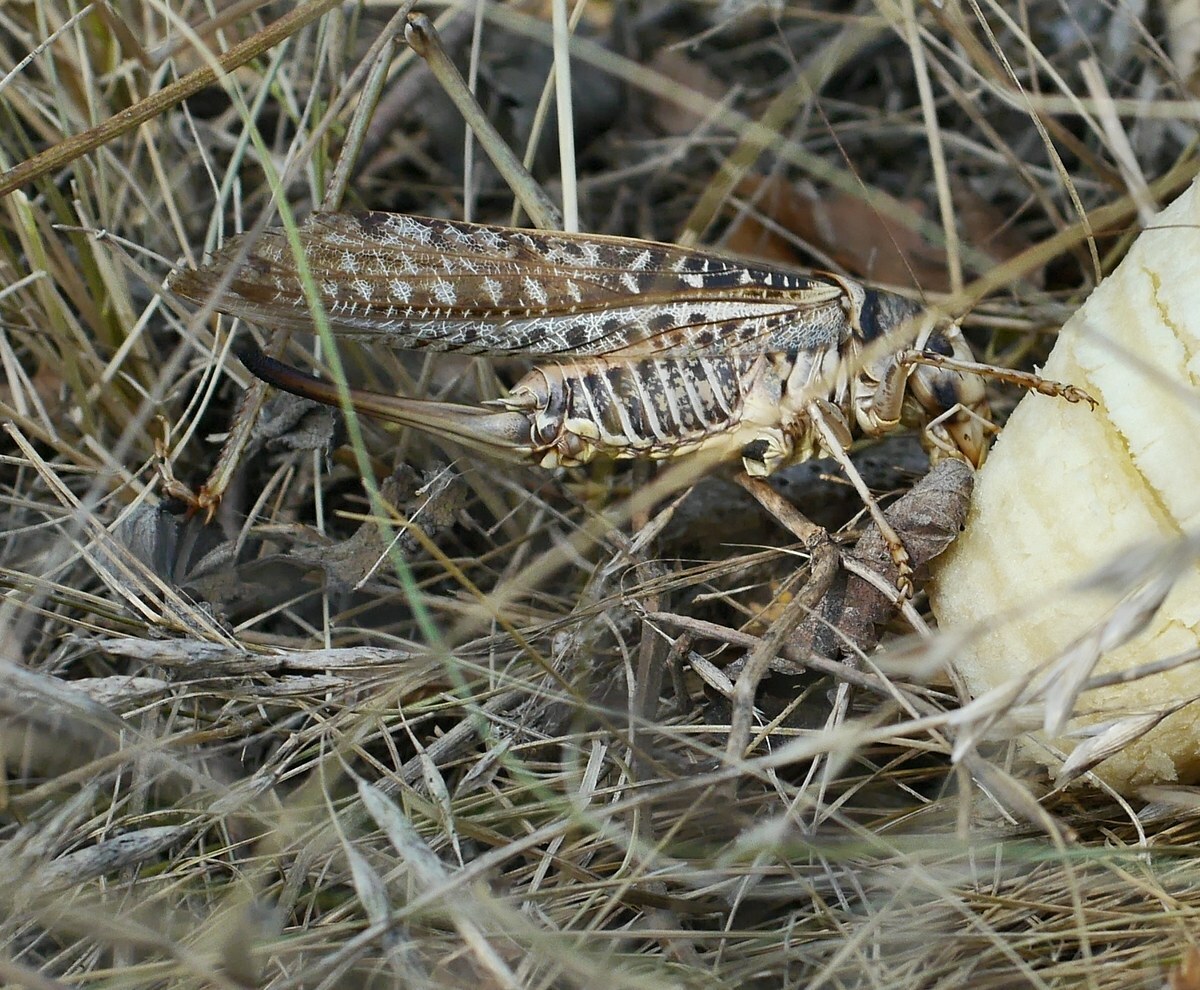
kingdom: Animalia
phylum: Arthropoda
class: Insecta
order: Orthoptera
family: Tettigoniidae
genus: Decticus
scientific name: Decticus albifrons
